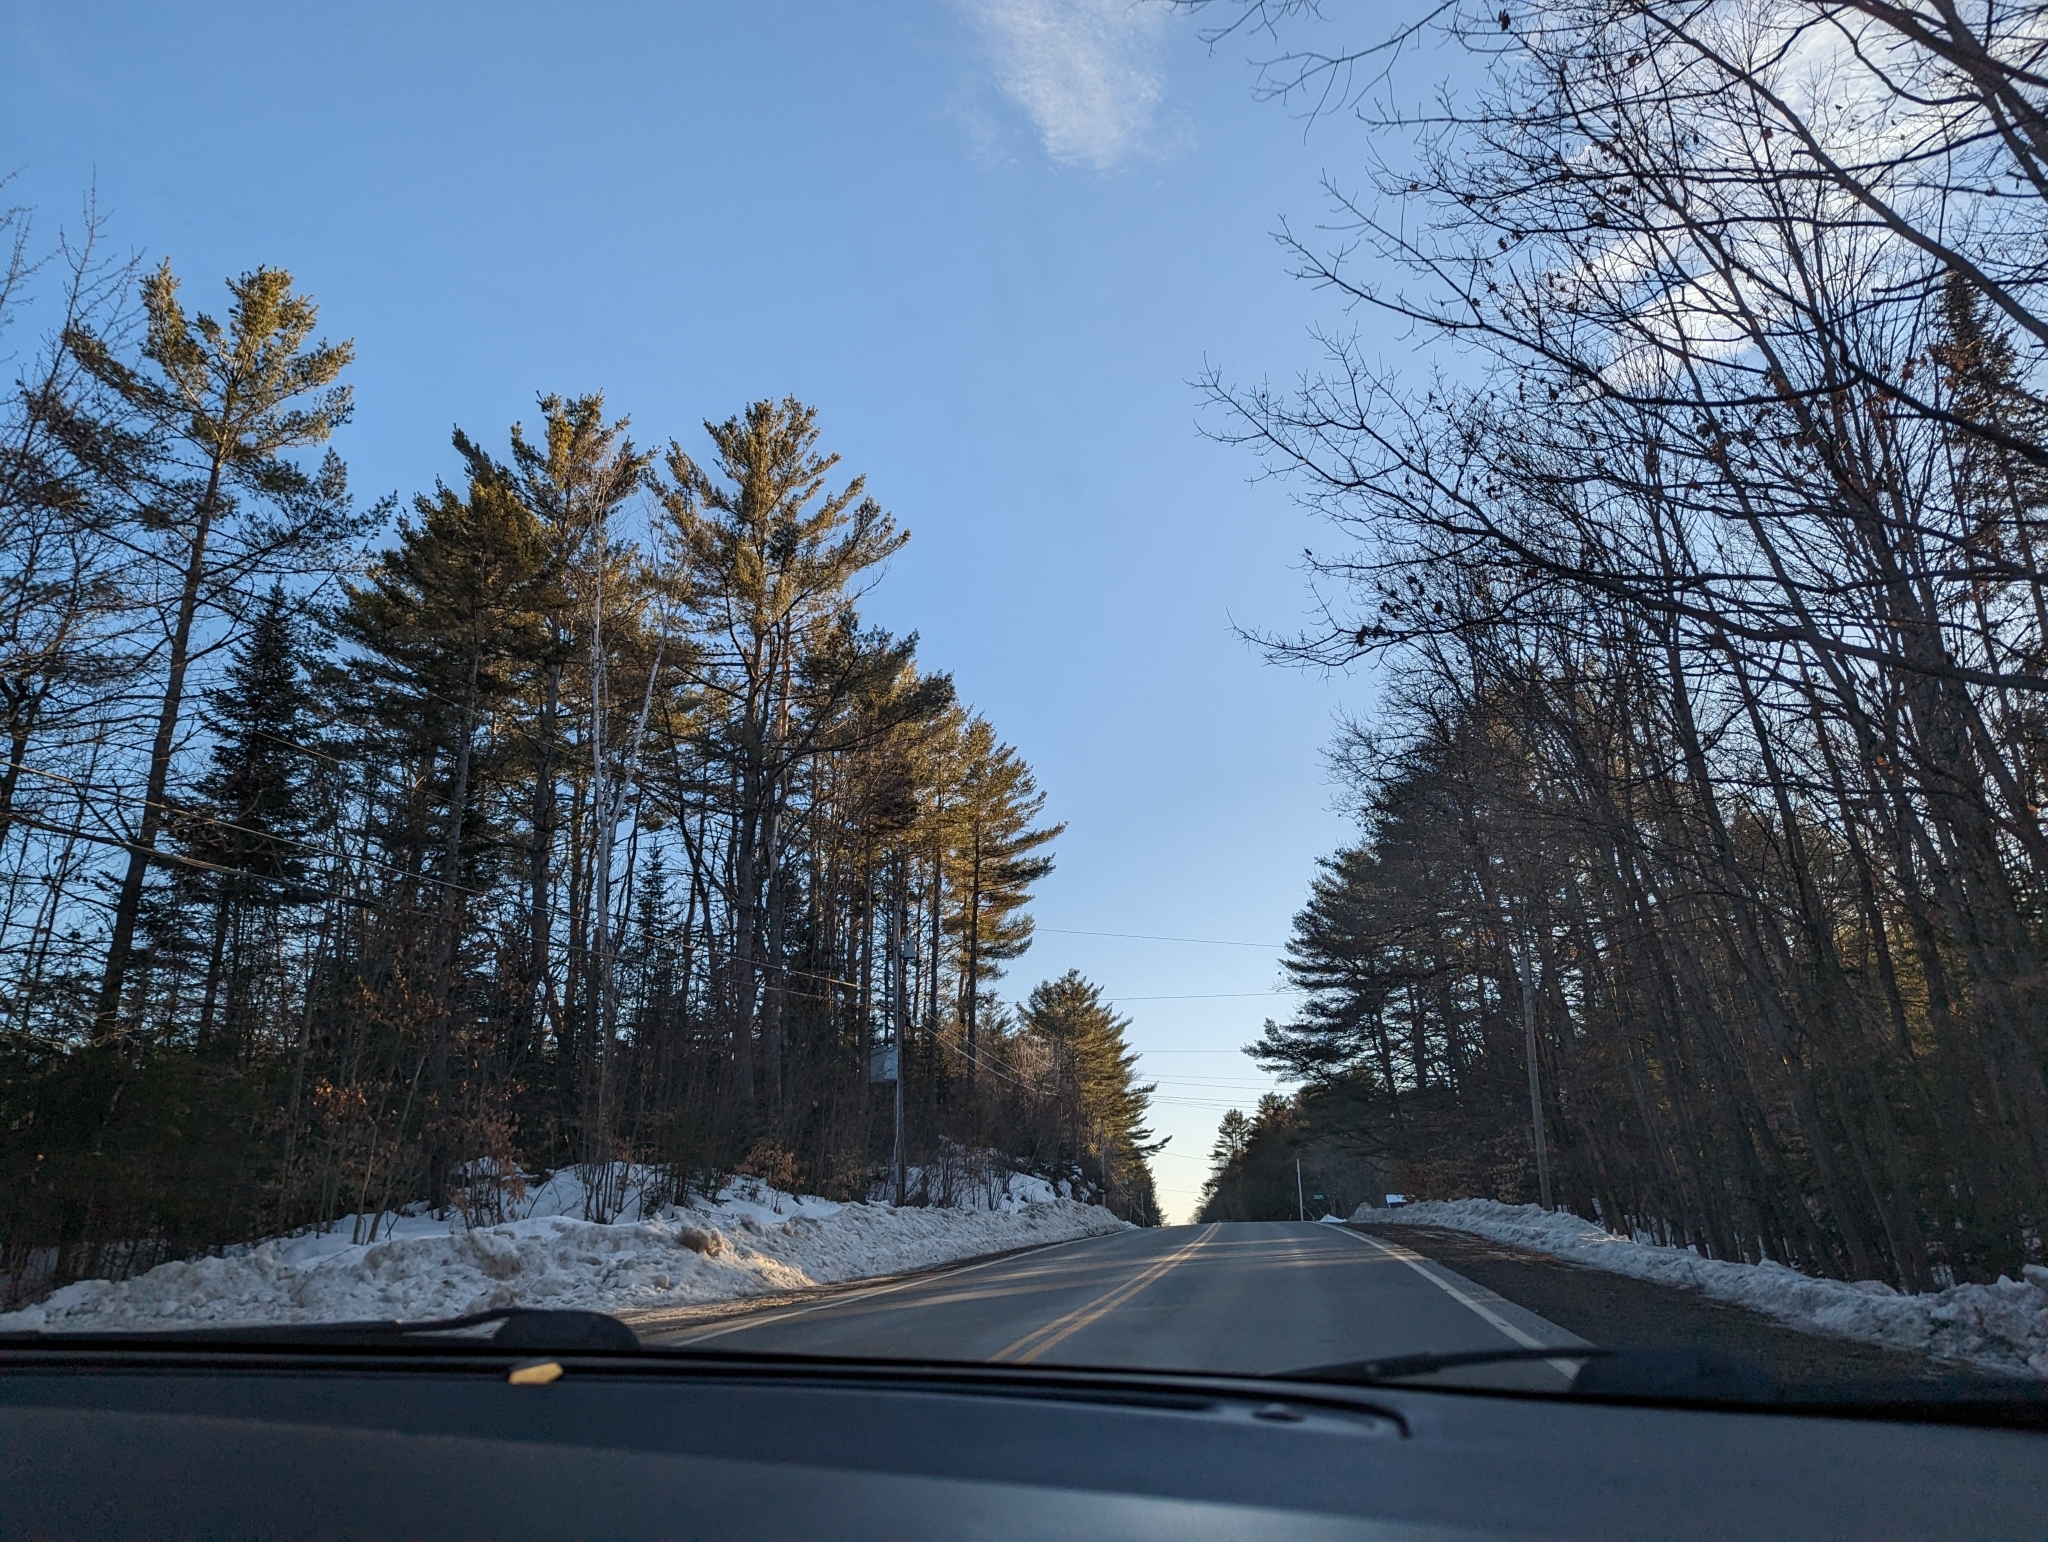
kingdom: Plantae
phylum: Tracheophyta
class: Pinopsida
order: Pinales
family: Pinaceae
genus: Pinus
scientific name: Pinus strobus
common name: Weymouth pine
